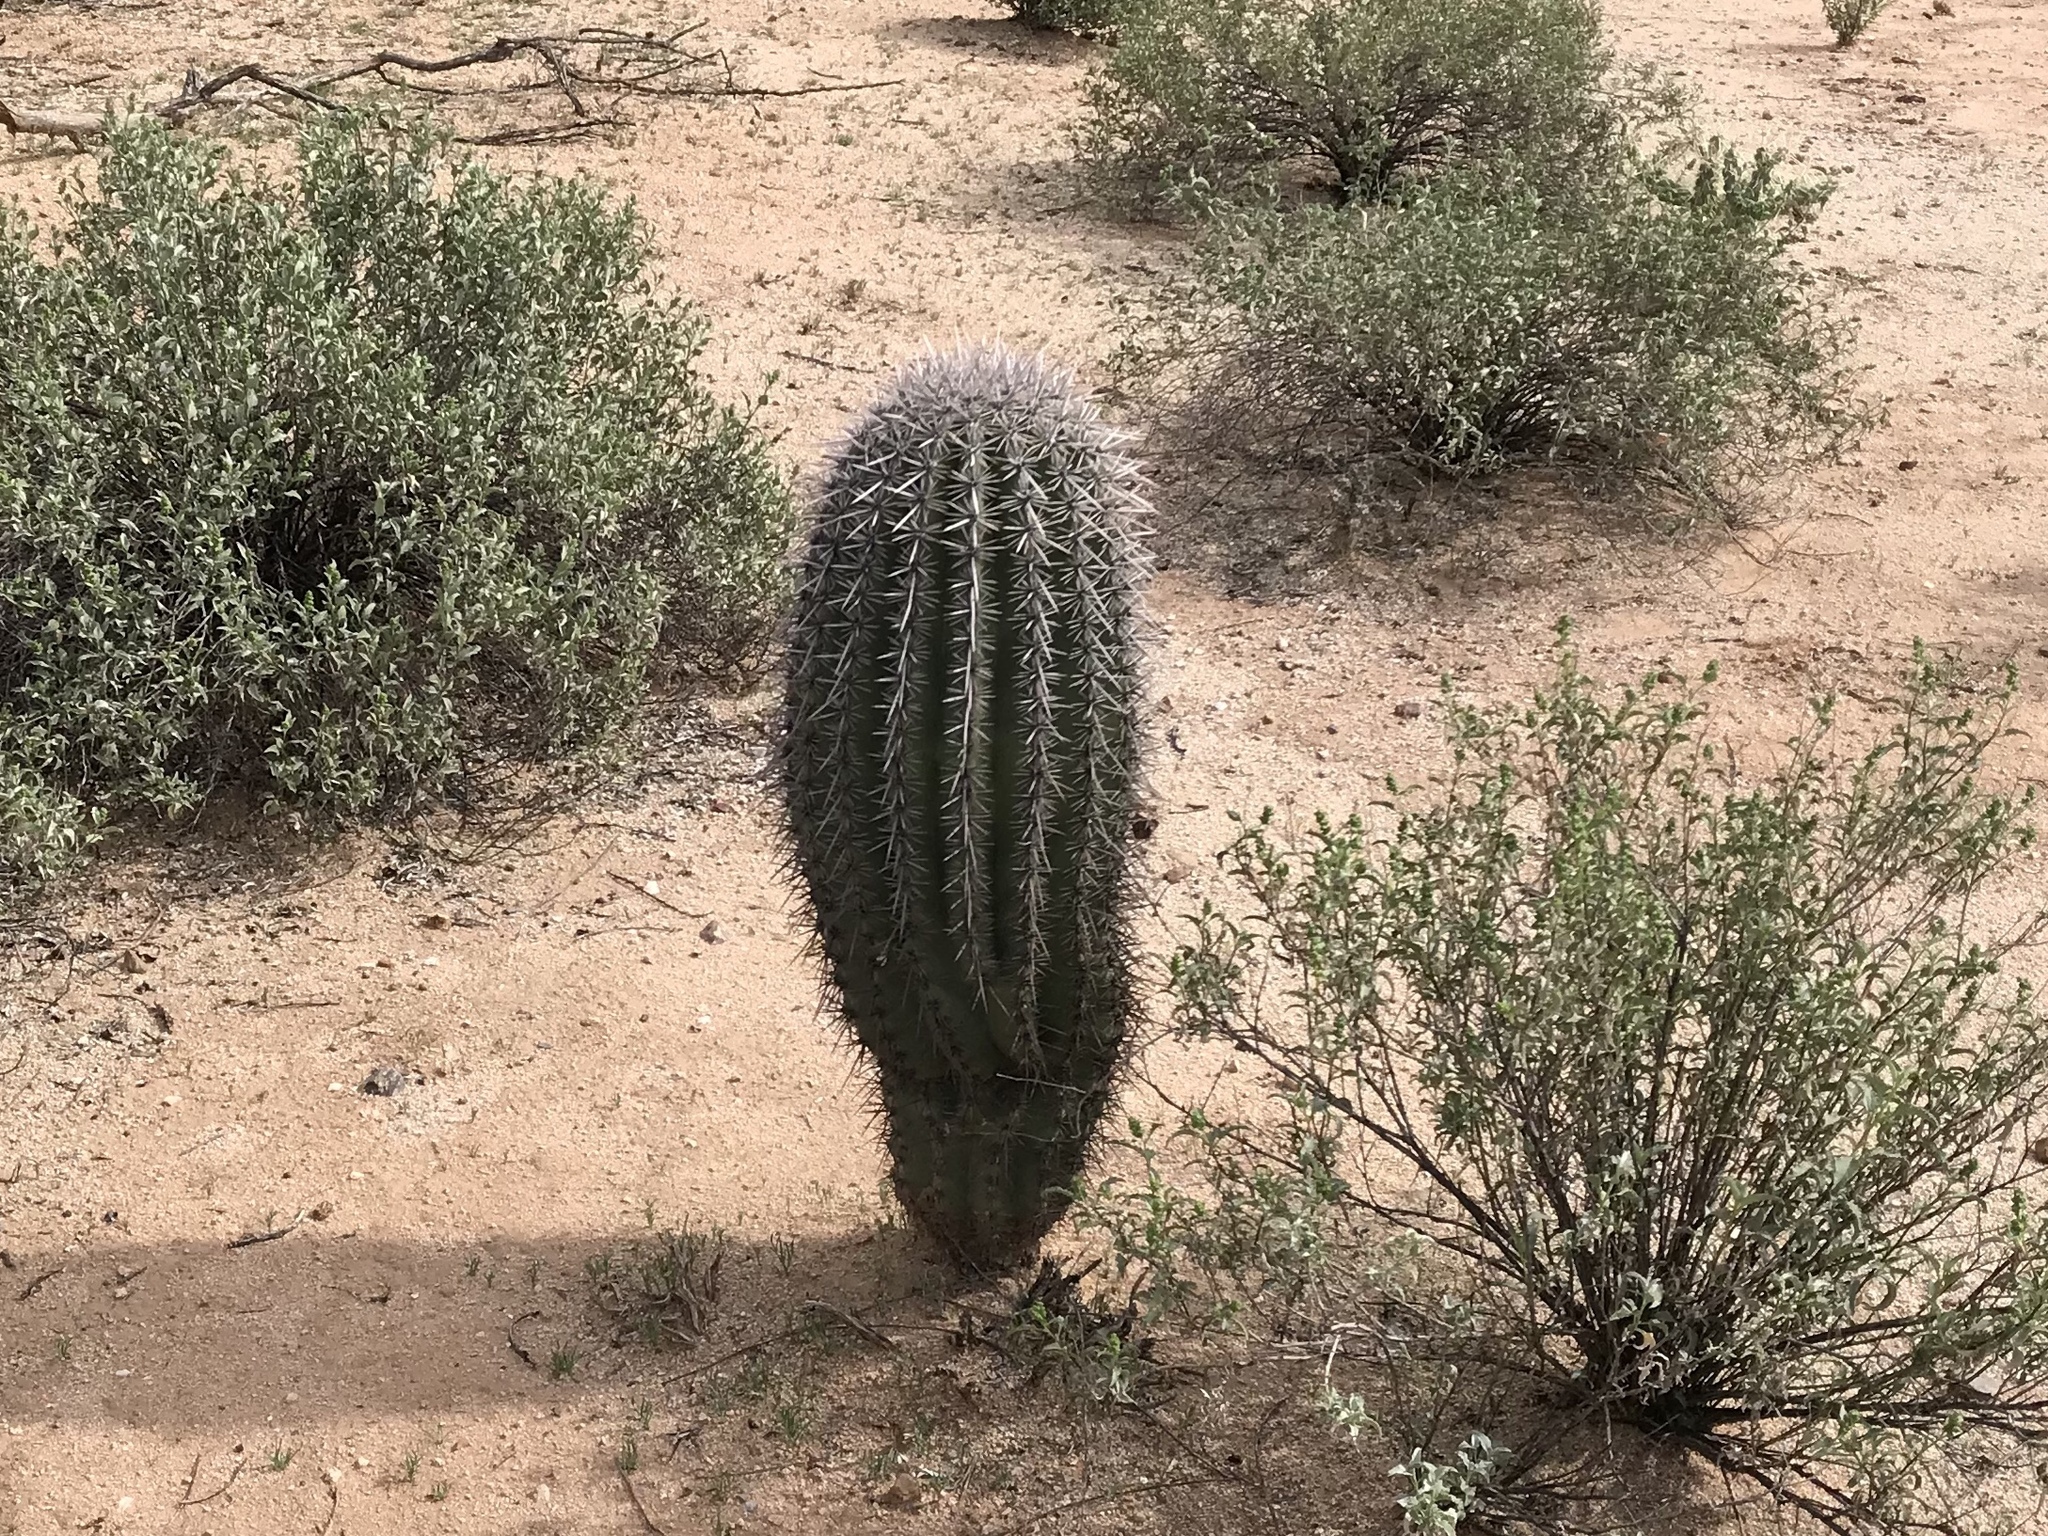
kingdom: Plantae
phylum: Tracheophyta
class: Magnoliopsida
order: Caryophyllales
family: Cactaceae
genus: Carnegiea
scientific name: Carnegiea gigantea
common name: Saguaro
